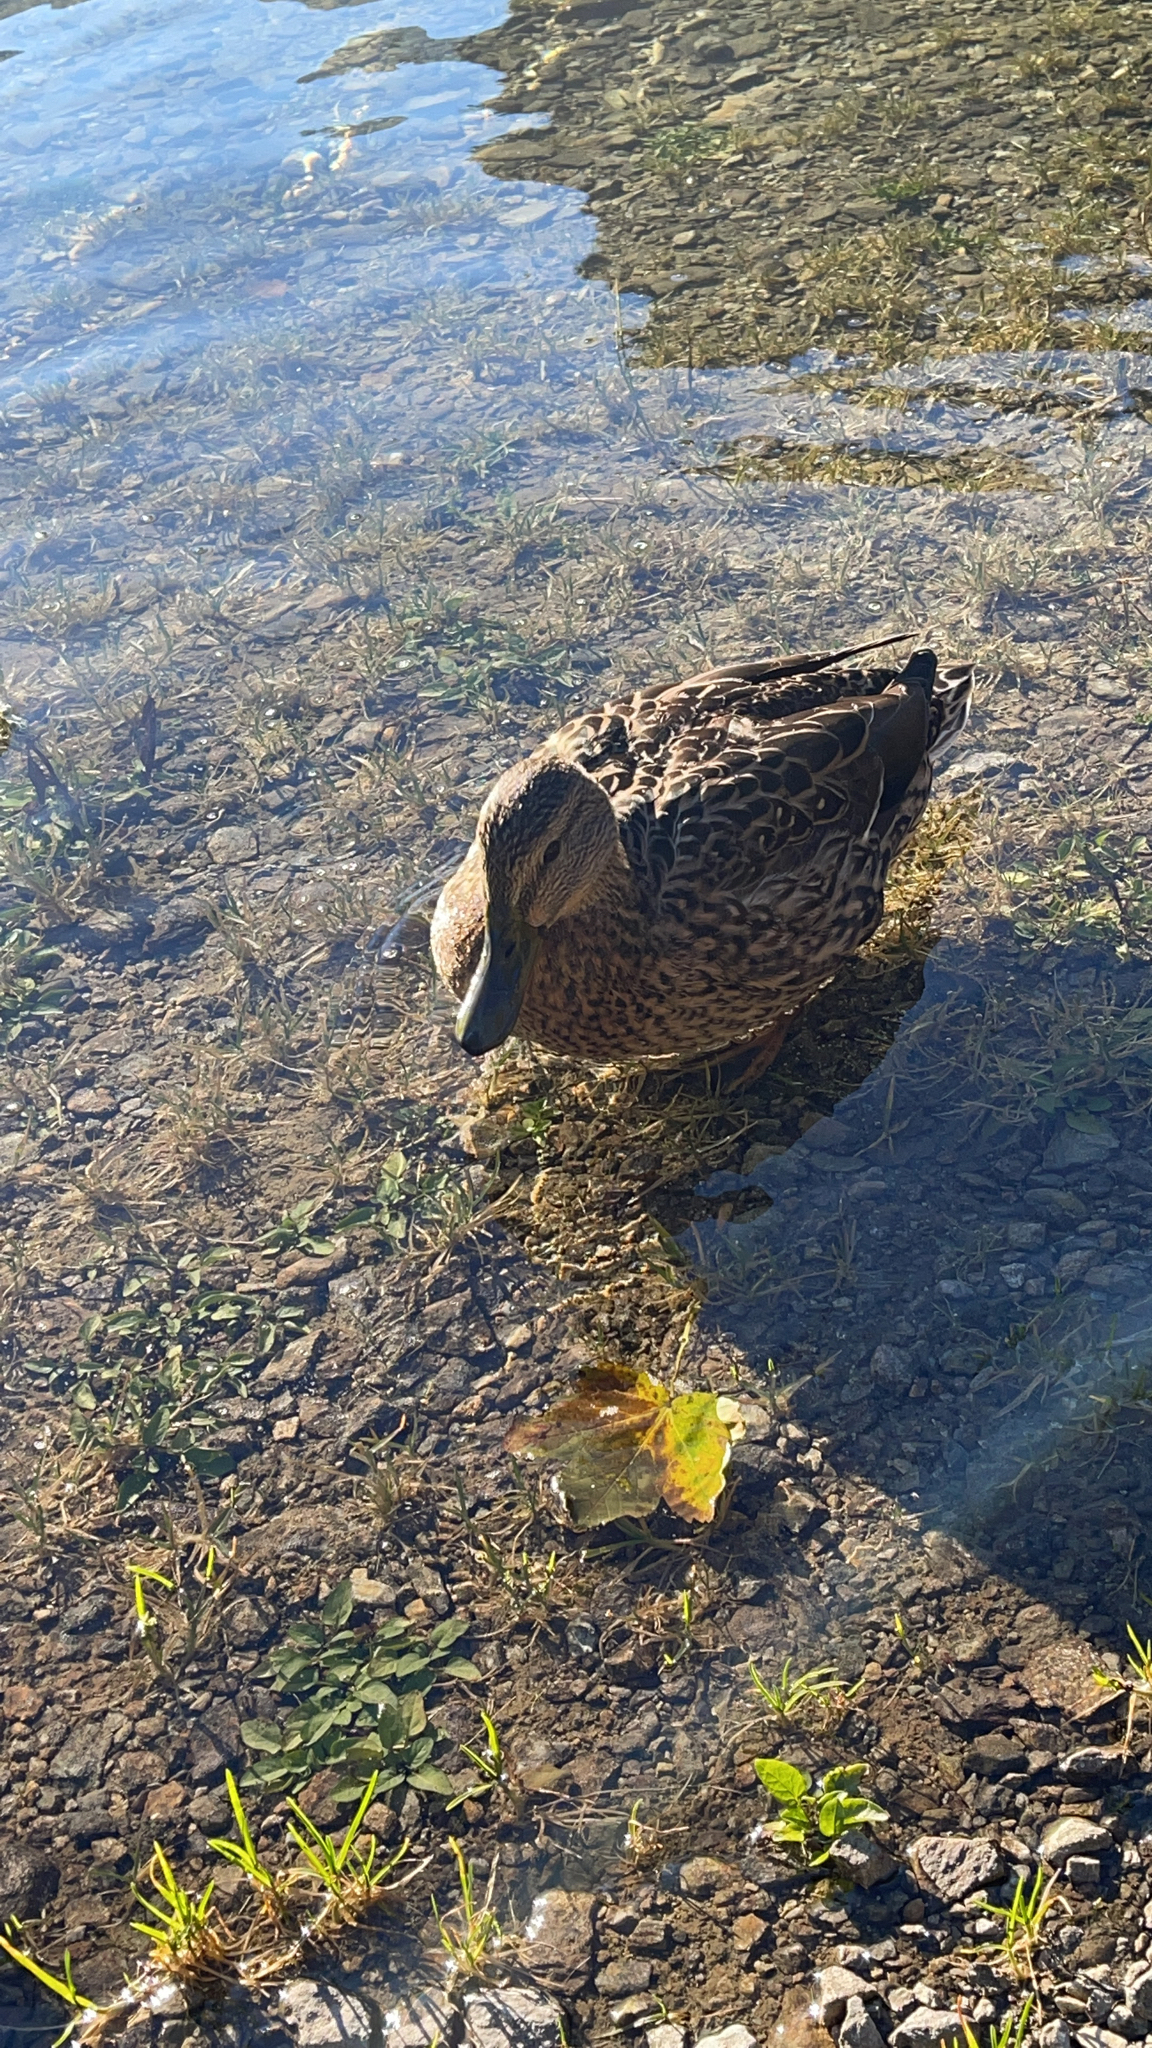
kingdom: Animalia
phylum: Chordata
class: Aves
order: Anseriformes
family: Anatidae
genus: Anas
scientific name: Anas platyrhynchos
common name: Mallard
